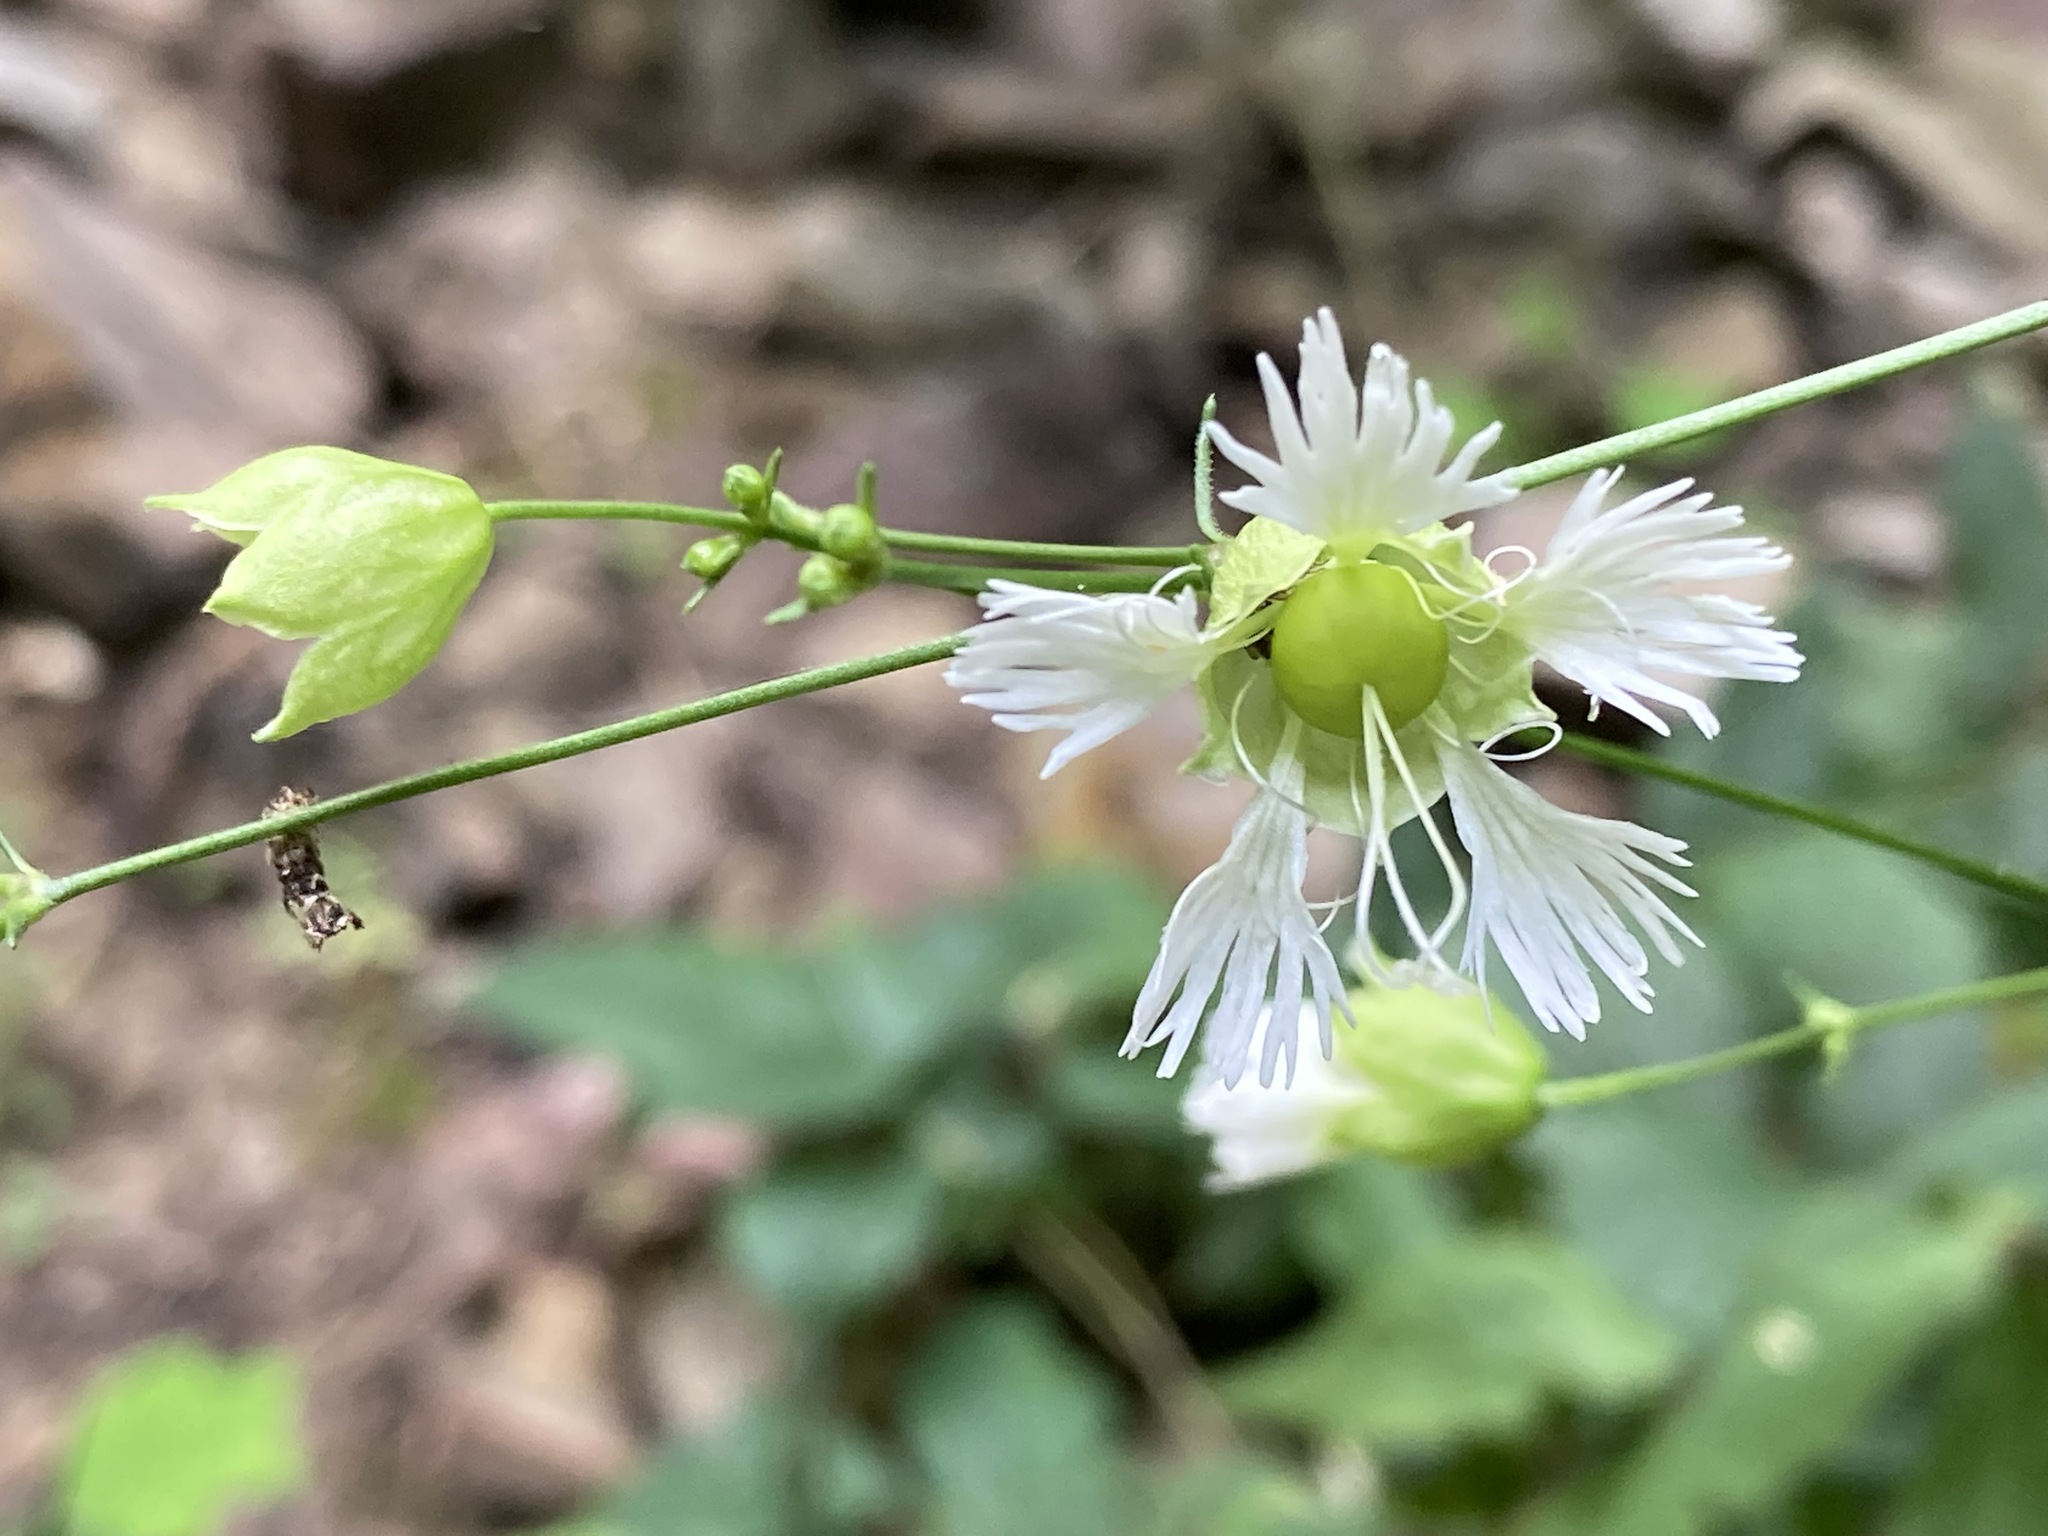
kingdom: Plantae
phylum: Tracheophyta
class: Magnoliopsida
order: Caryophyllales
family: Caryophyllaceae
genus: Silene
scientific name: Silene stellata
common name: Starry campion
